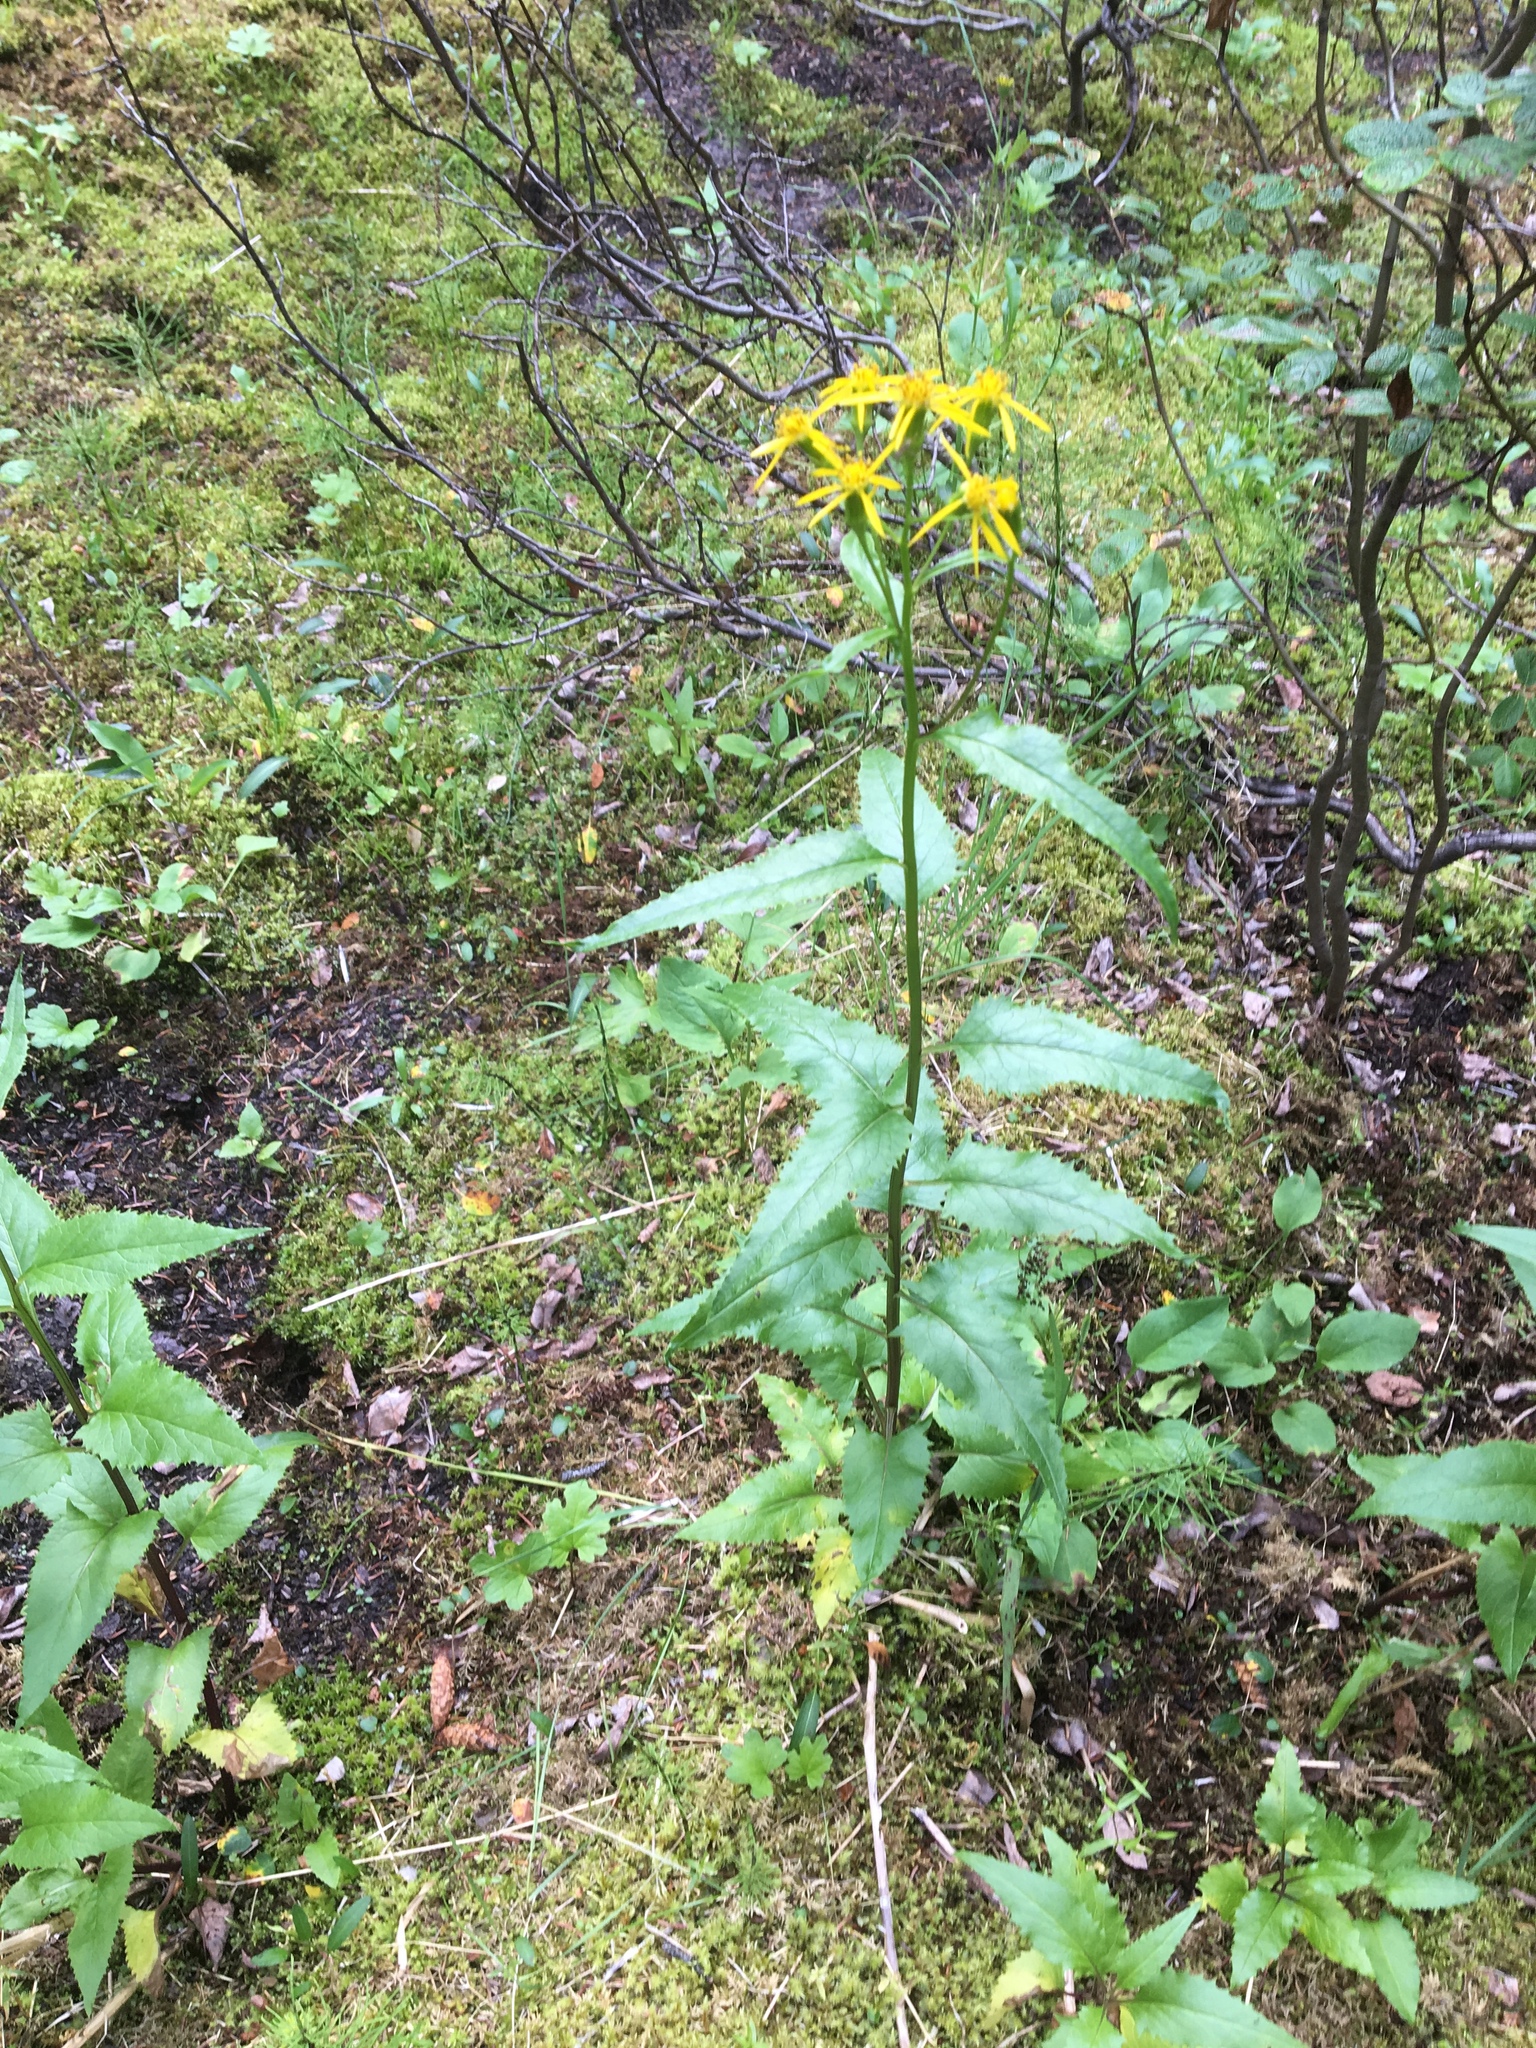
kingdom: Plantae
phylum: Tracheophyta
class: Magnoliopsida
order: Asterales
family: Asteraceae
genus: Senecio
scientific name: Senecio triangularis
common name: Arrowleaf butterweed
